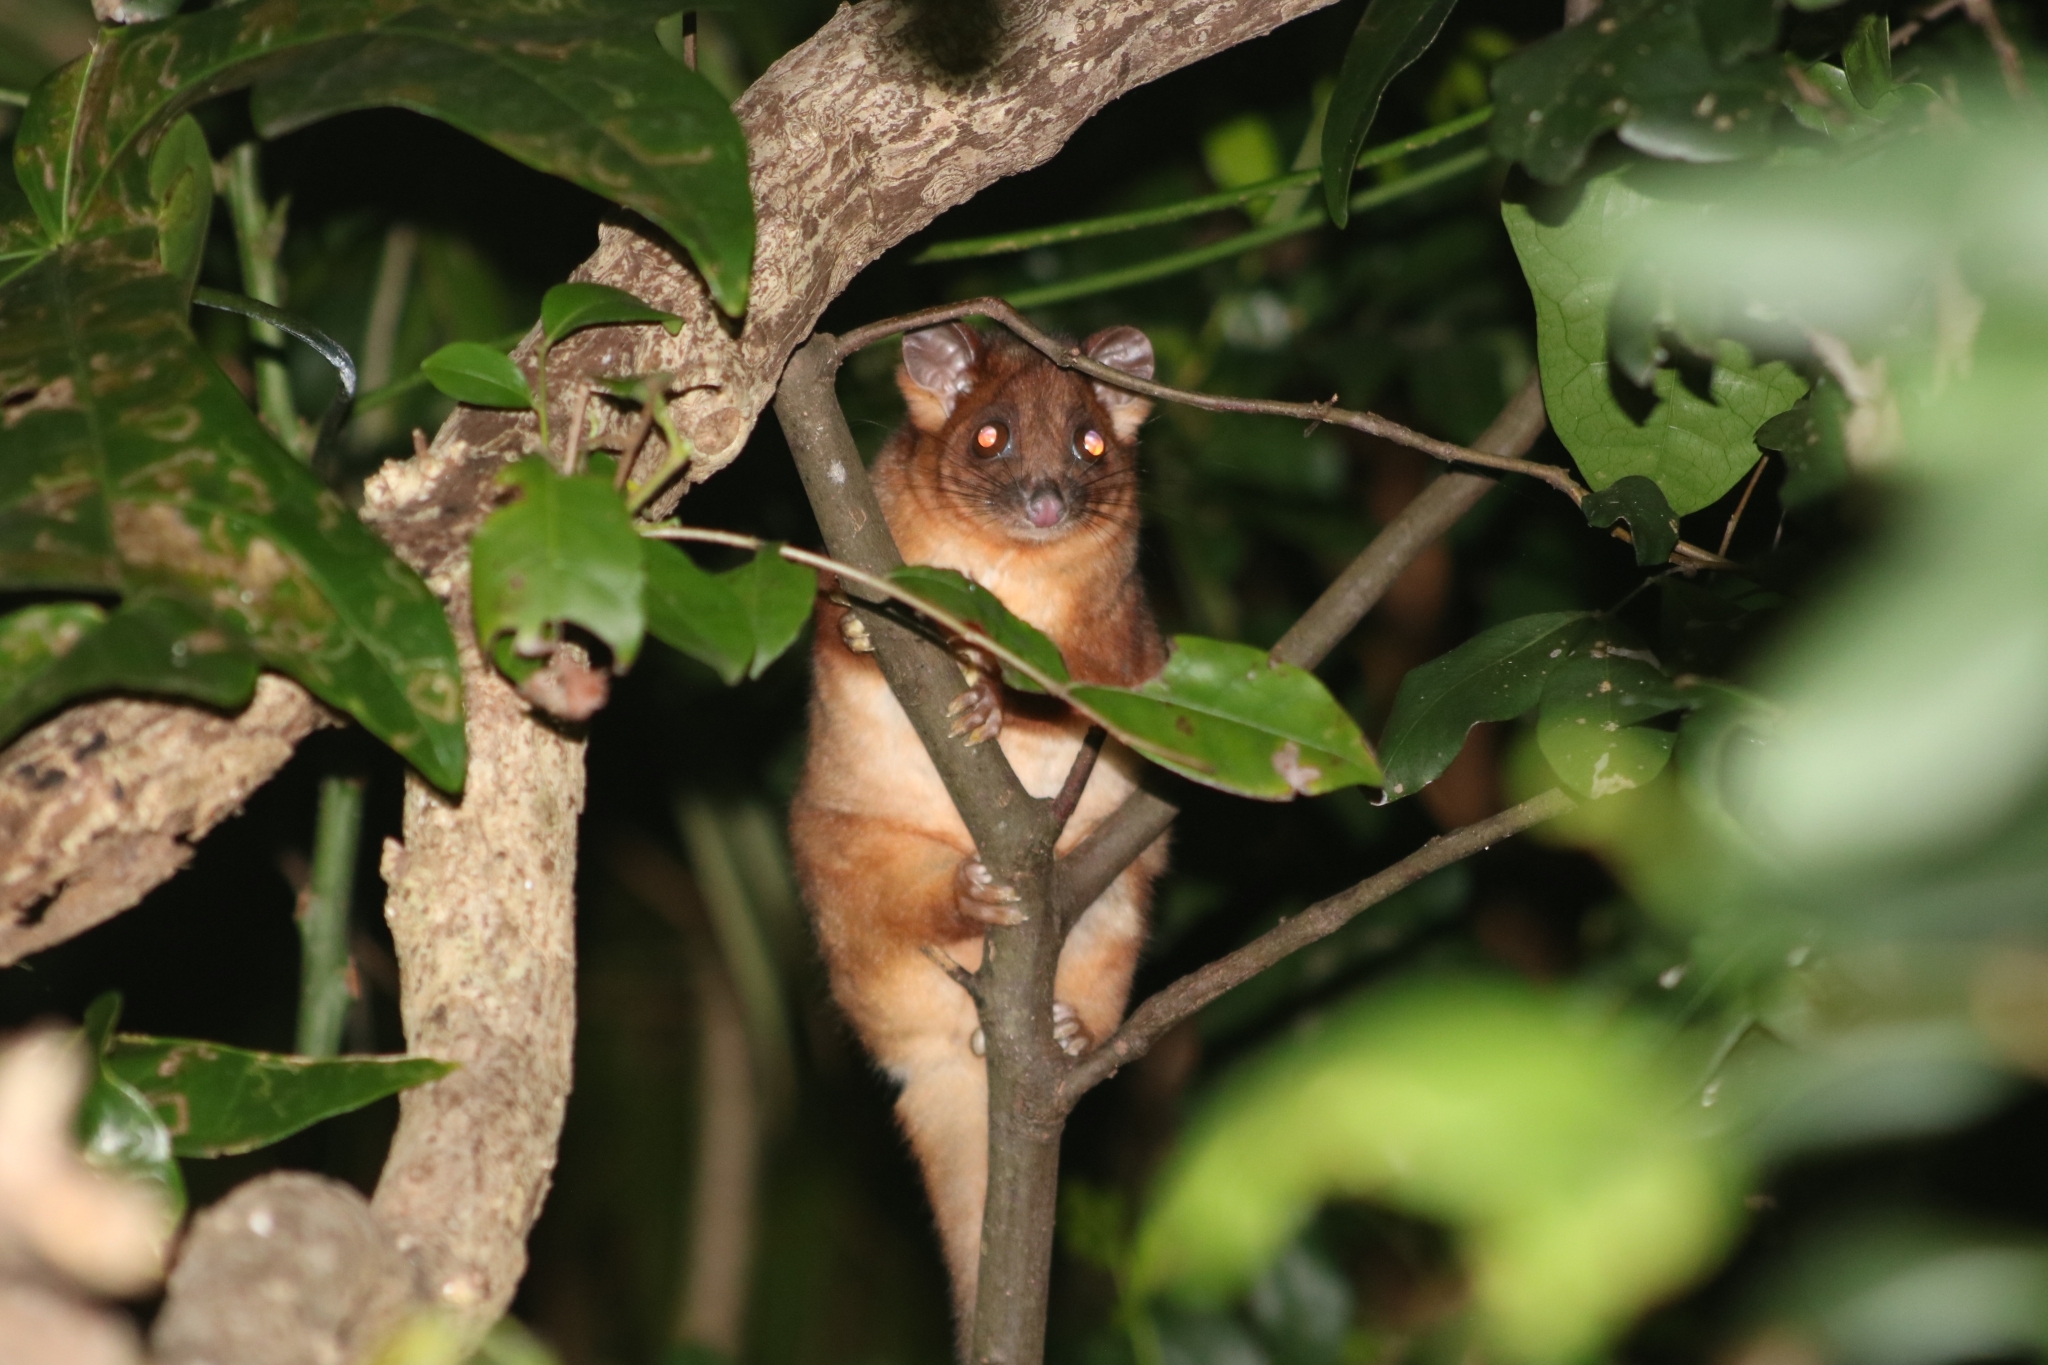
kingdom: Animalia
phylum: Chordata
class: Mammalia
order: Diprotodontia
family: Pseudocheiridae
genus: Pseudocheirus
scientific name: Pseudocheirus peregrinus
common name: Common ringtail possum
